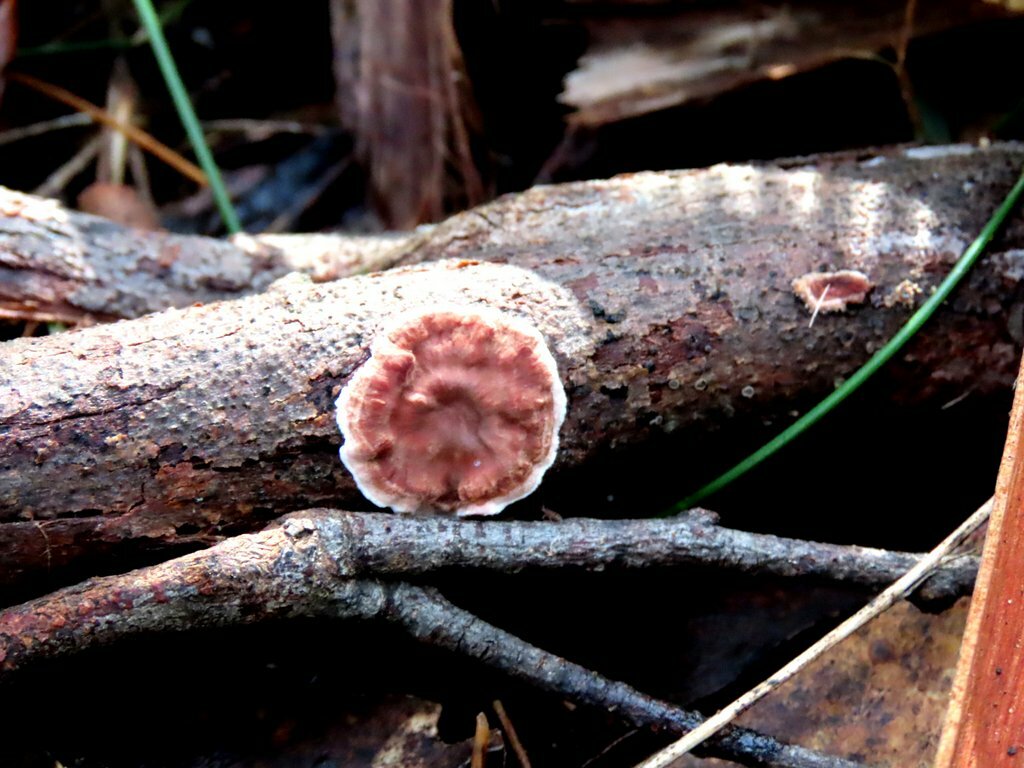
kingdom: Fungi
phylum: Basidiomycota
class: Agaricomycetes
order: Russulales
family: Stereaceae
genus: Xylobolus
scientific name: Xylobolus illudens
